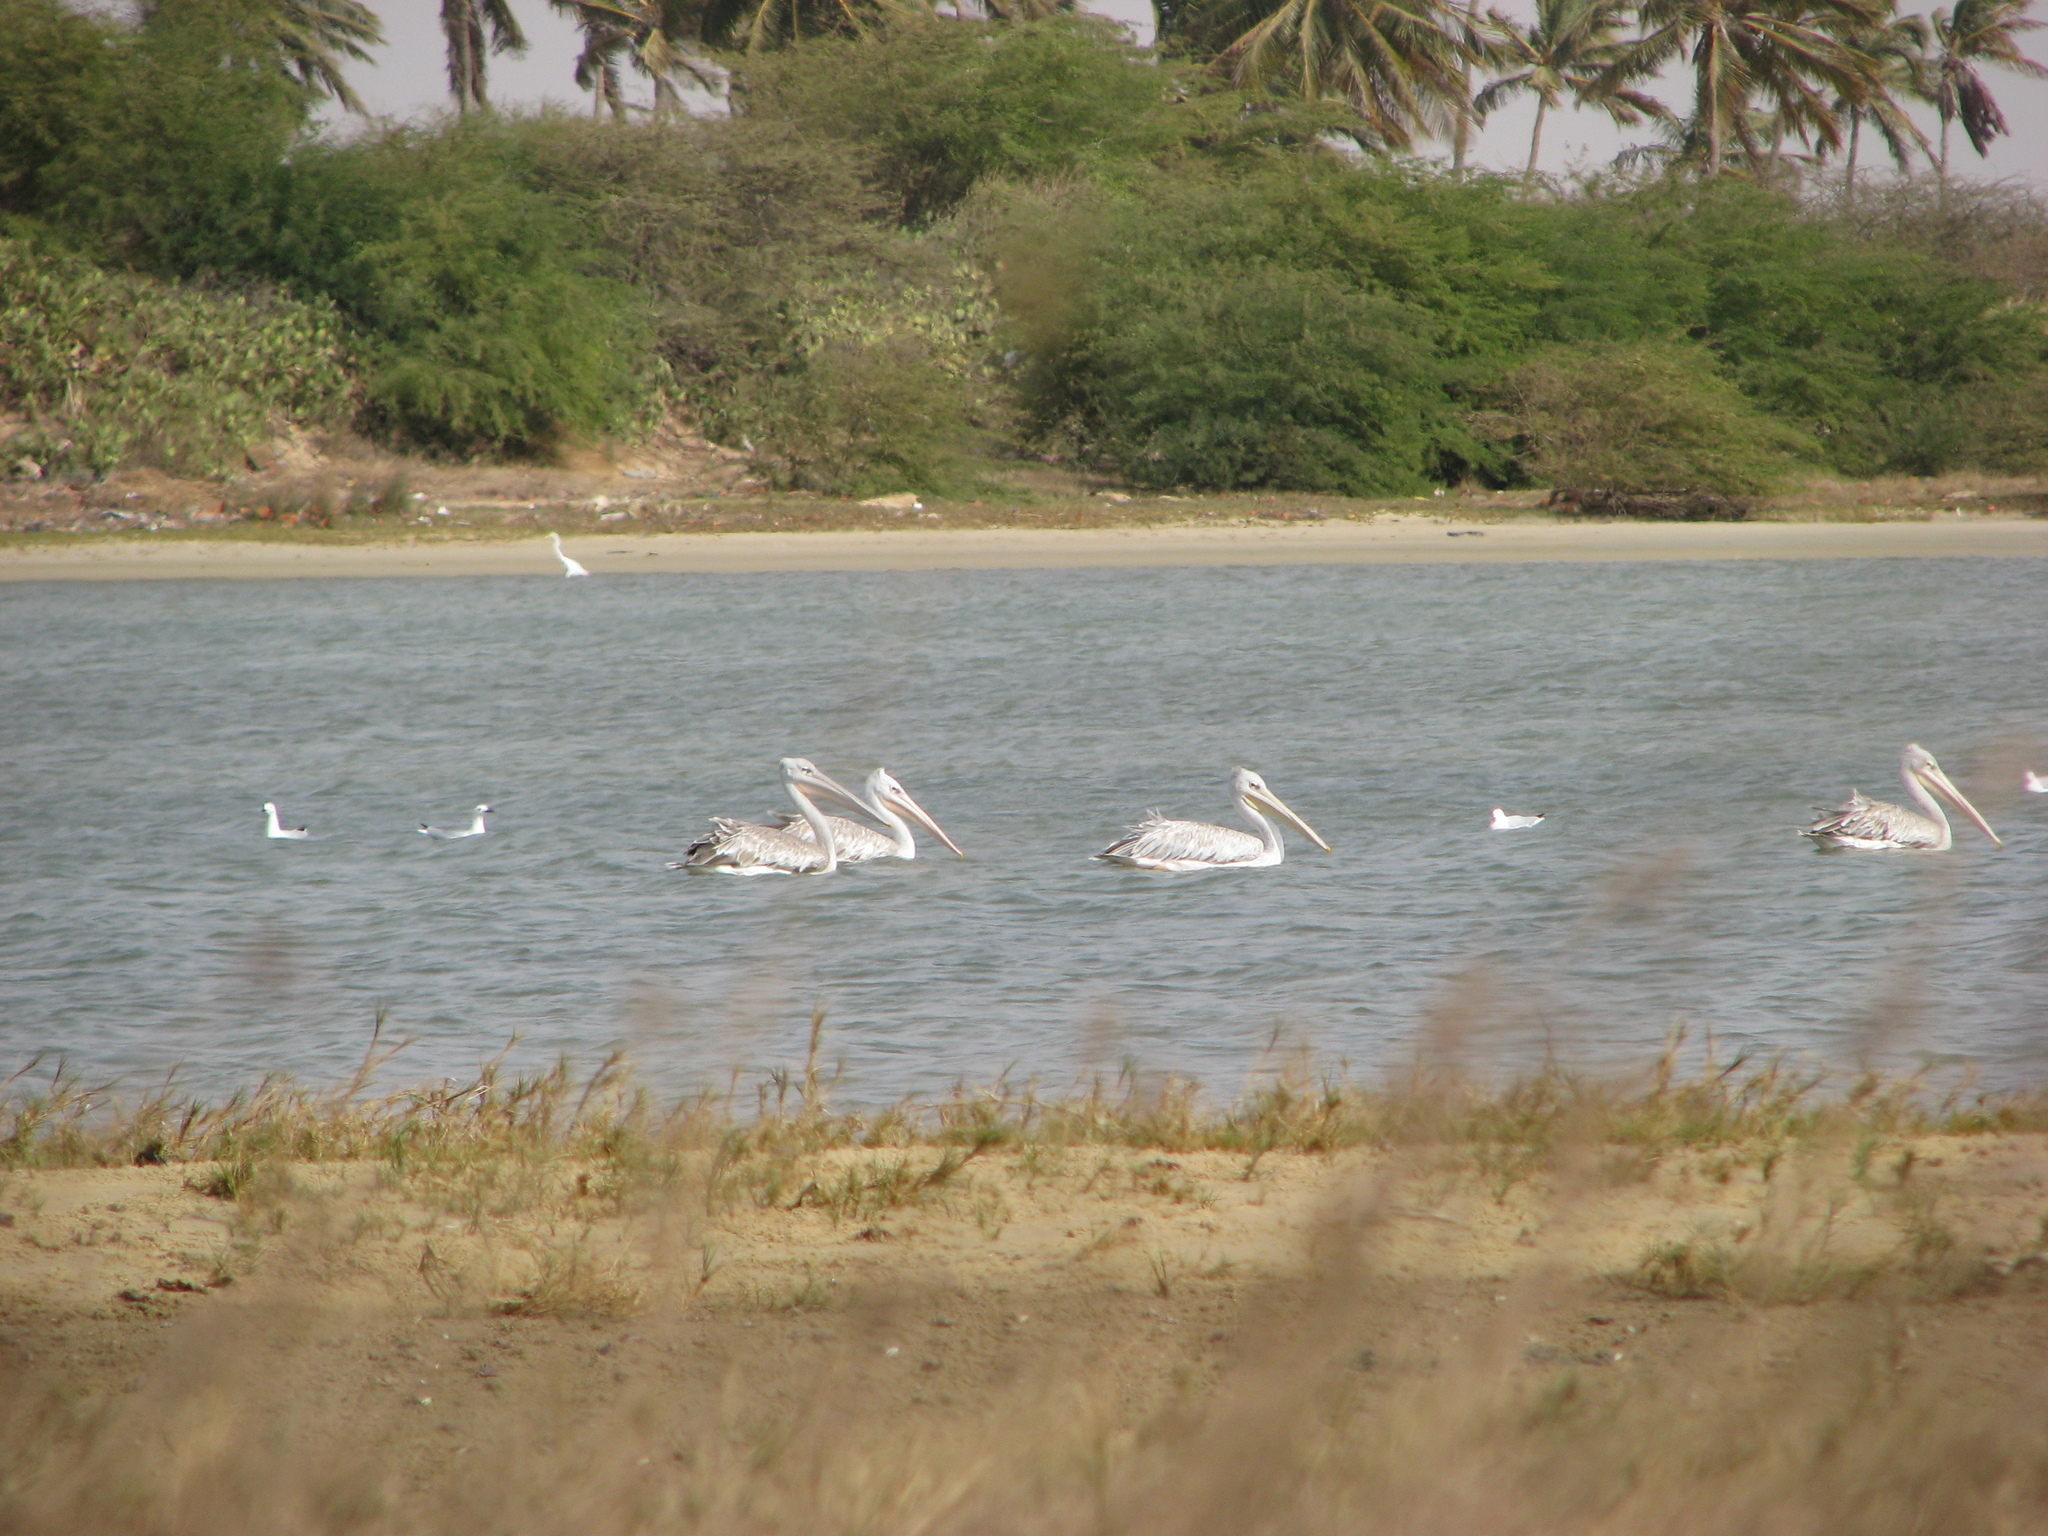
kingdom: Animalia
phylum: Chordata
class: Aves
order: Pelecaniformes
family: Pelecanidae
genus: Pelecanus
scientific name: Pelecanus rufescens
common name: Pink-backed pelican
